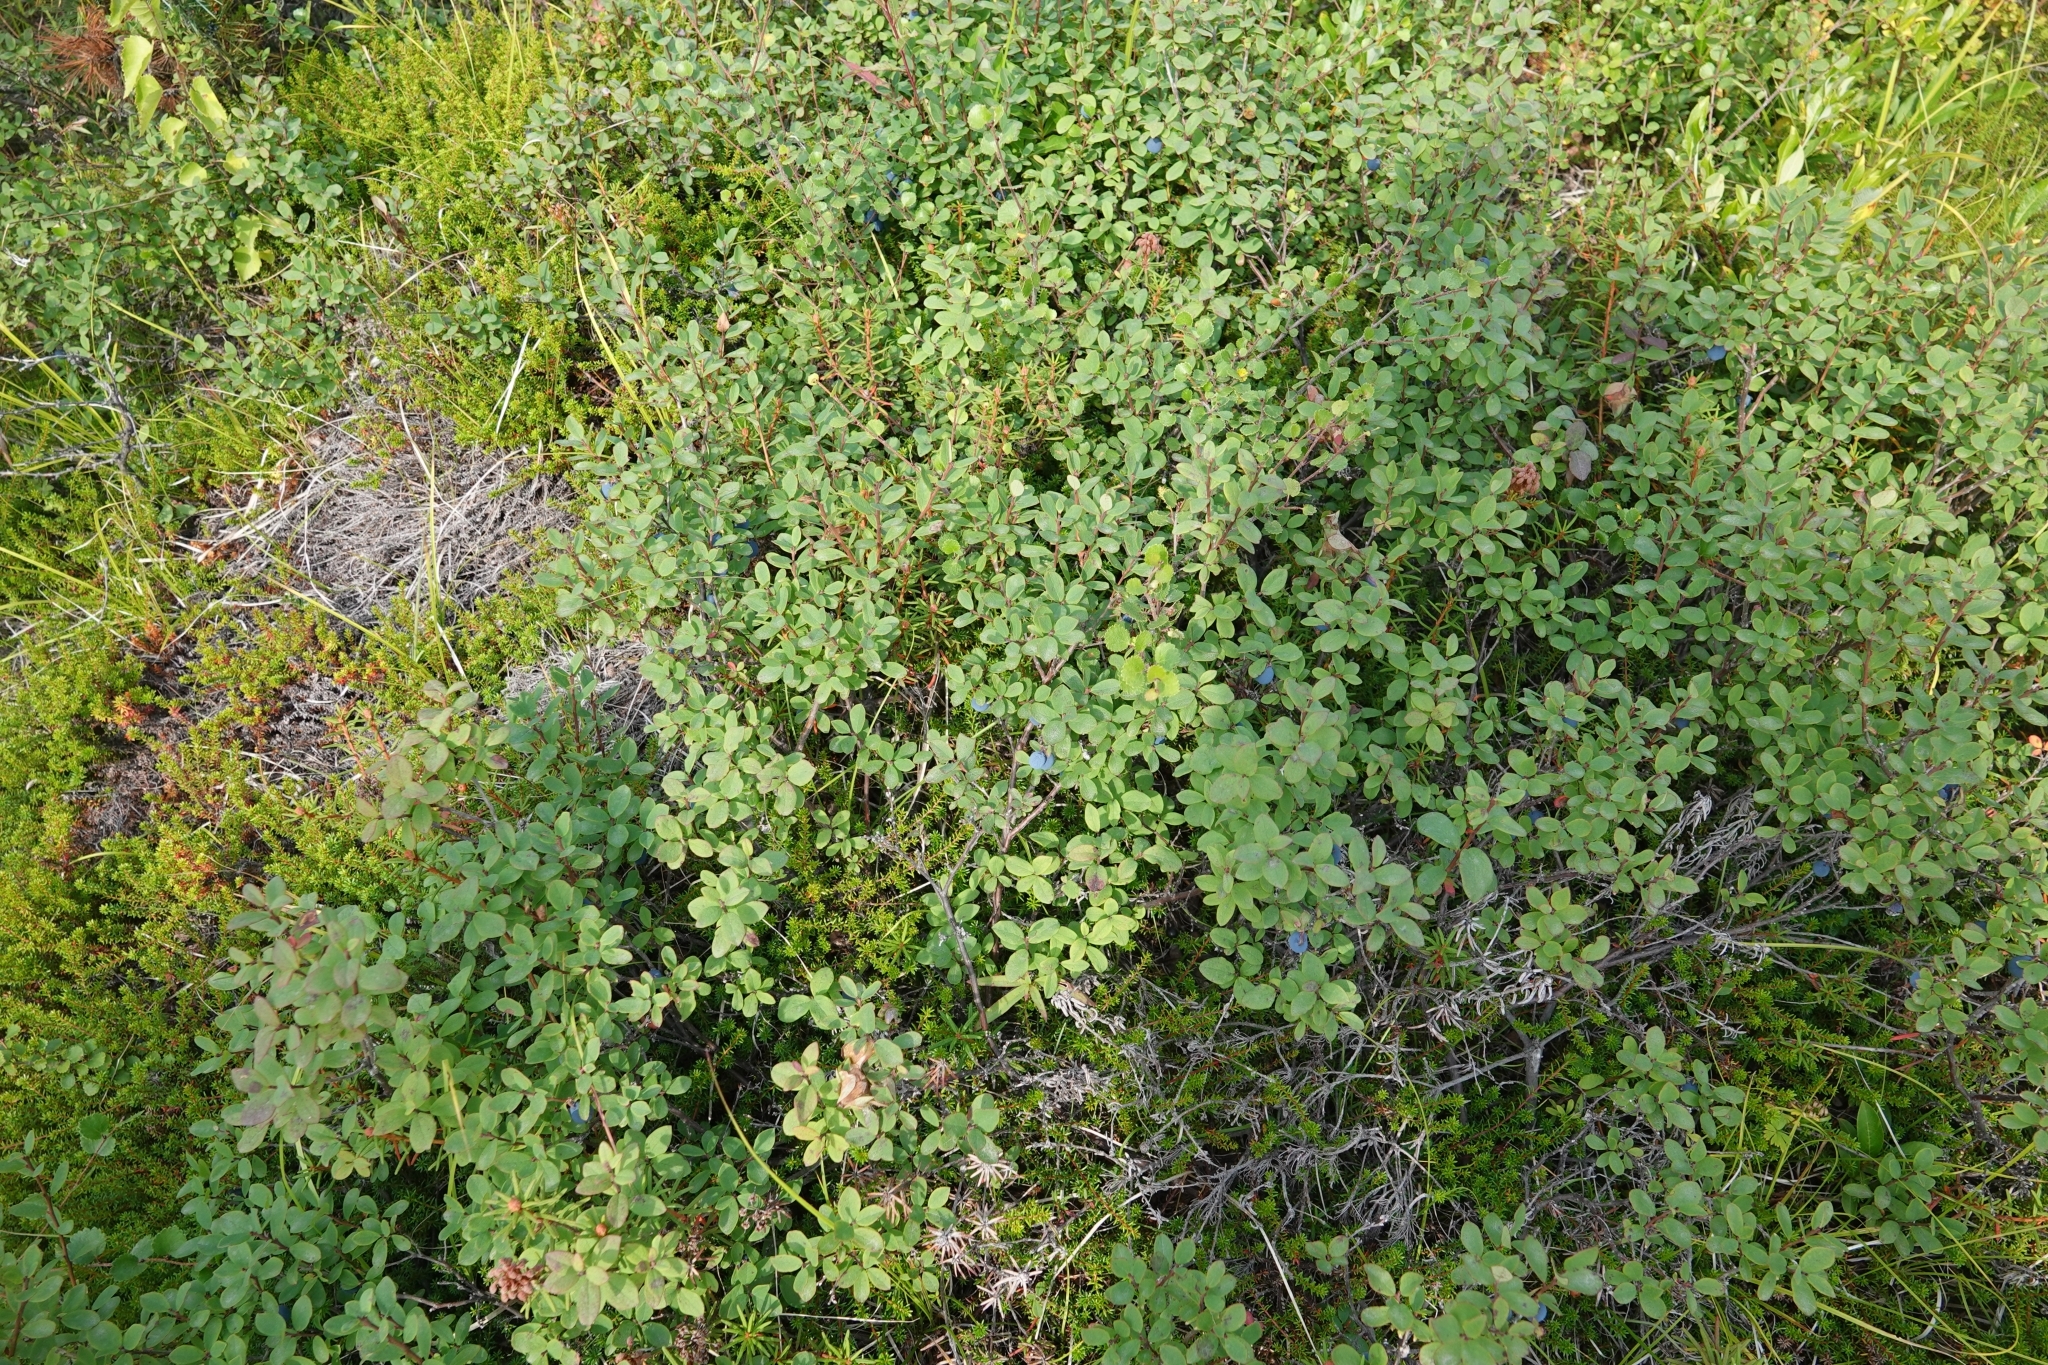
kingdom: Plantae
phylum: Tracheophyta
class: Magnoliopsida
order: Ericales
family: Ericaceae
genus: Vaccinium
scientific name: Vaccinium uliginosum
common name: Bog bilberry
